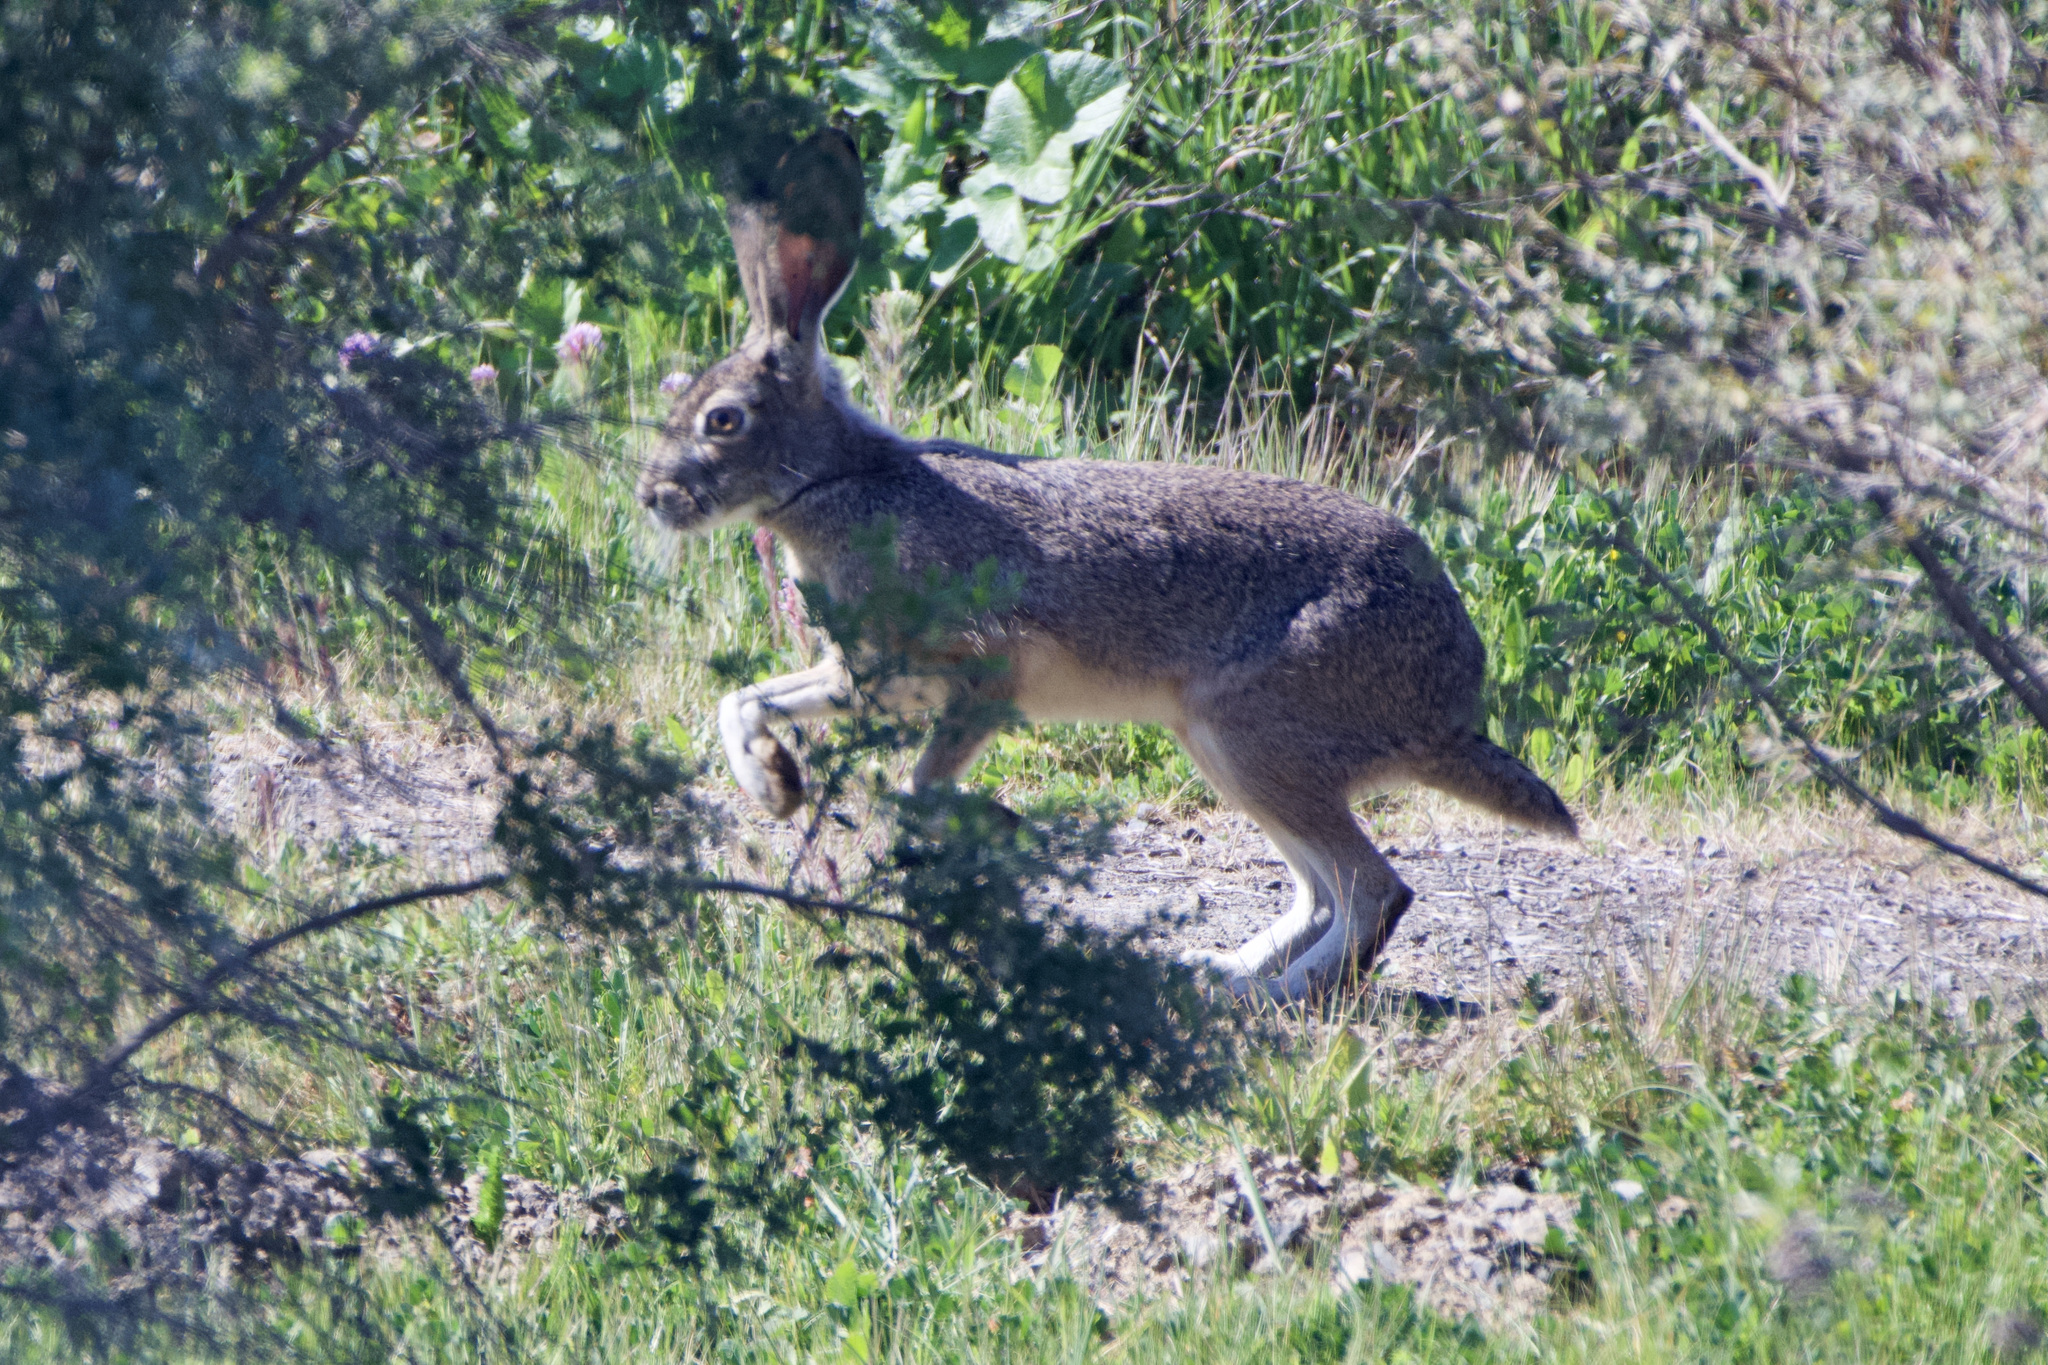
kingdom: Animalia
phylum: Chordata
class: Mammalia
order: Lagomorpha
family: Leporidae
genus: Lepus
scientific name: Lepus californicus
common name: Black-tailed jackrabbit
